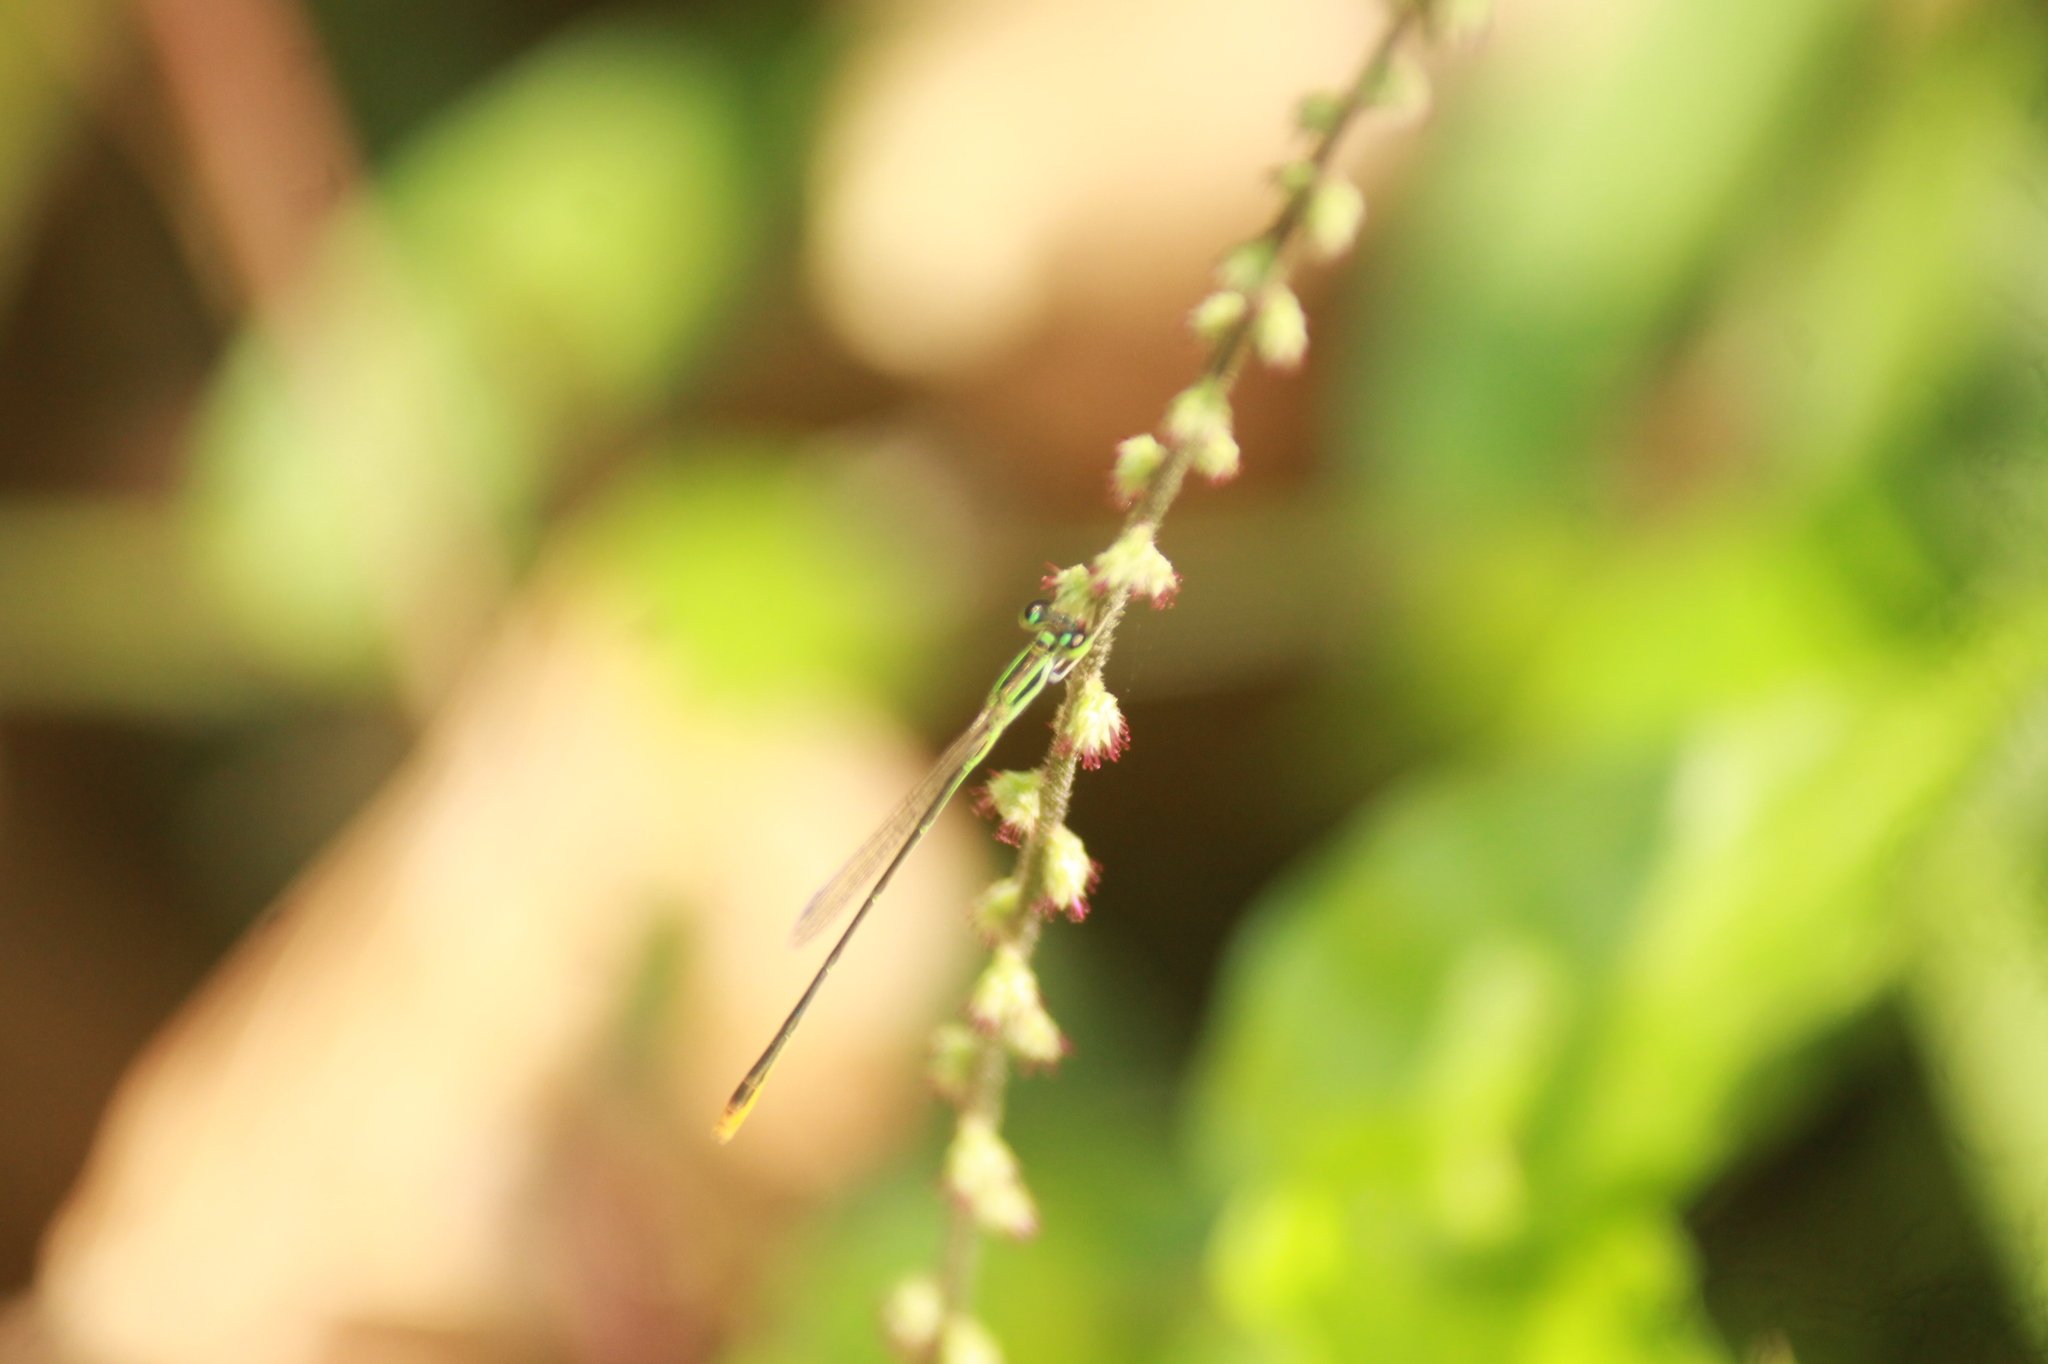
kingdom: Animalia
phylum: Arthropoda
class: Insecta
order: Odonata
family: Coenagrionidae
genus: Agriocnemis
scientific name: Agriocnemis pygmaea
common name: Pygmy wisp
